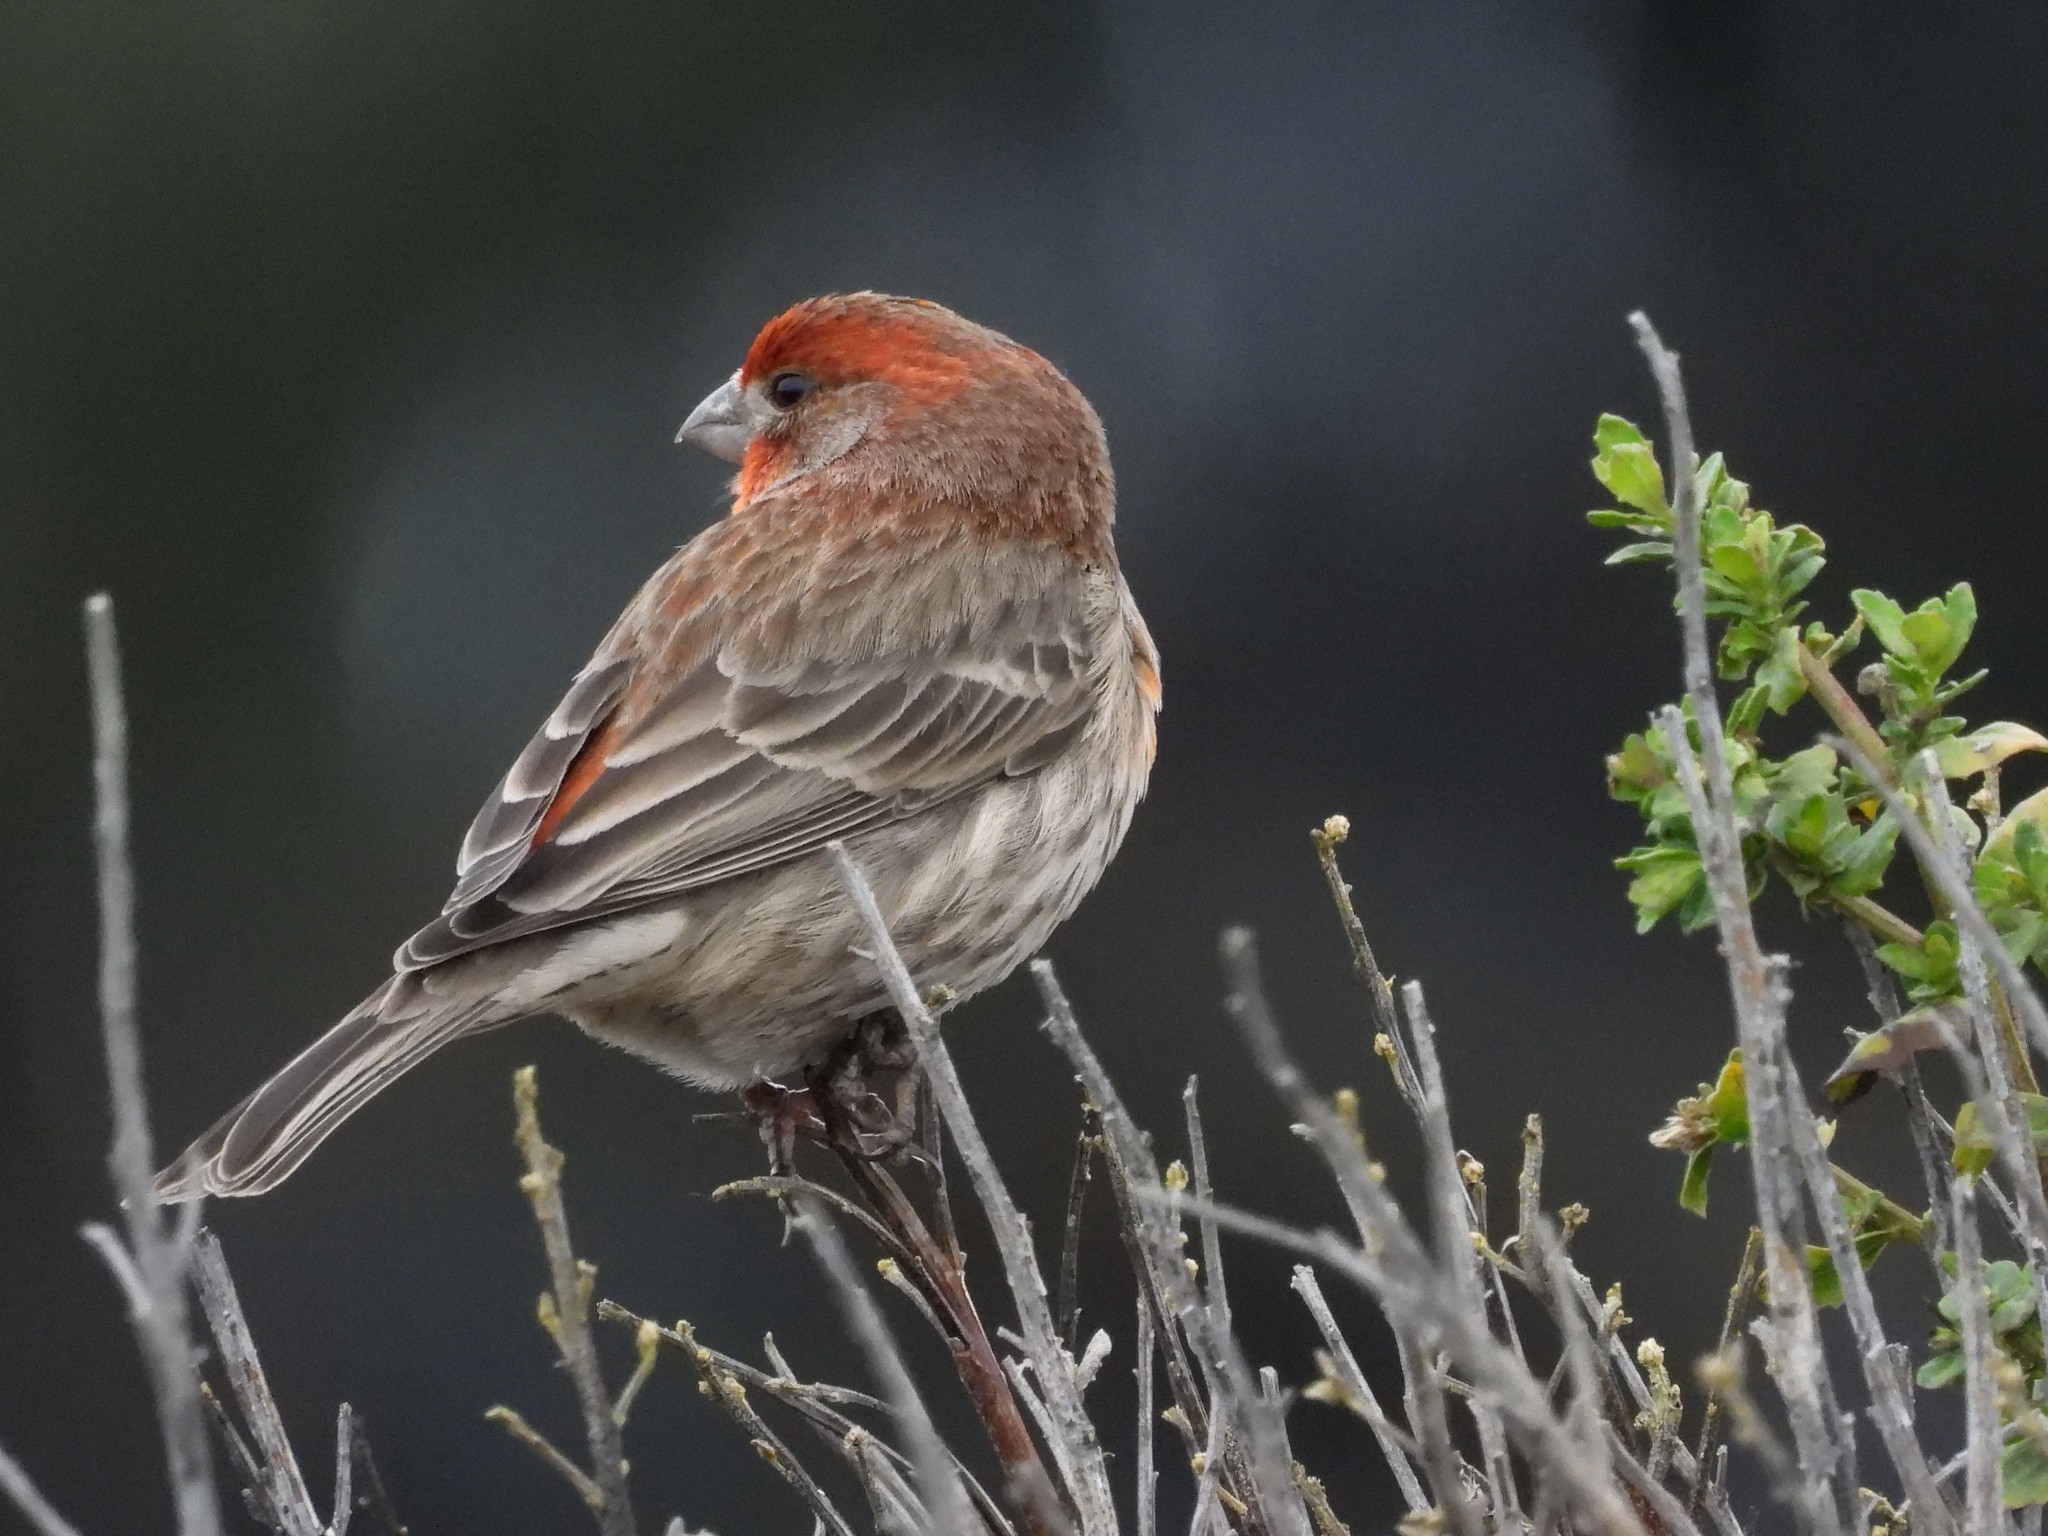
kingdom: Animalia
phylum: Chordata
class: Aves
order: Passeriformes
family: Fringillidae
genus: Haemorhous
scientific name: Haemorhous mexicanus
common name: House finch
